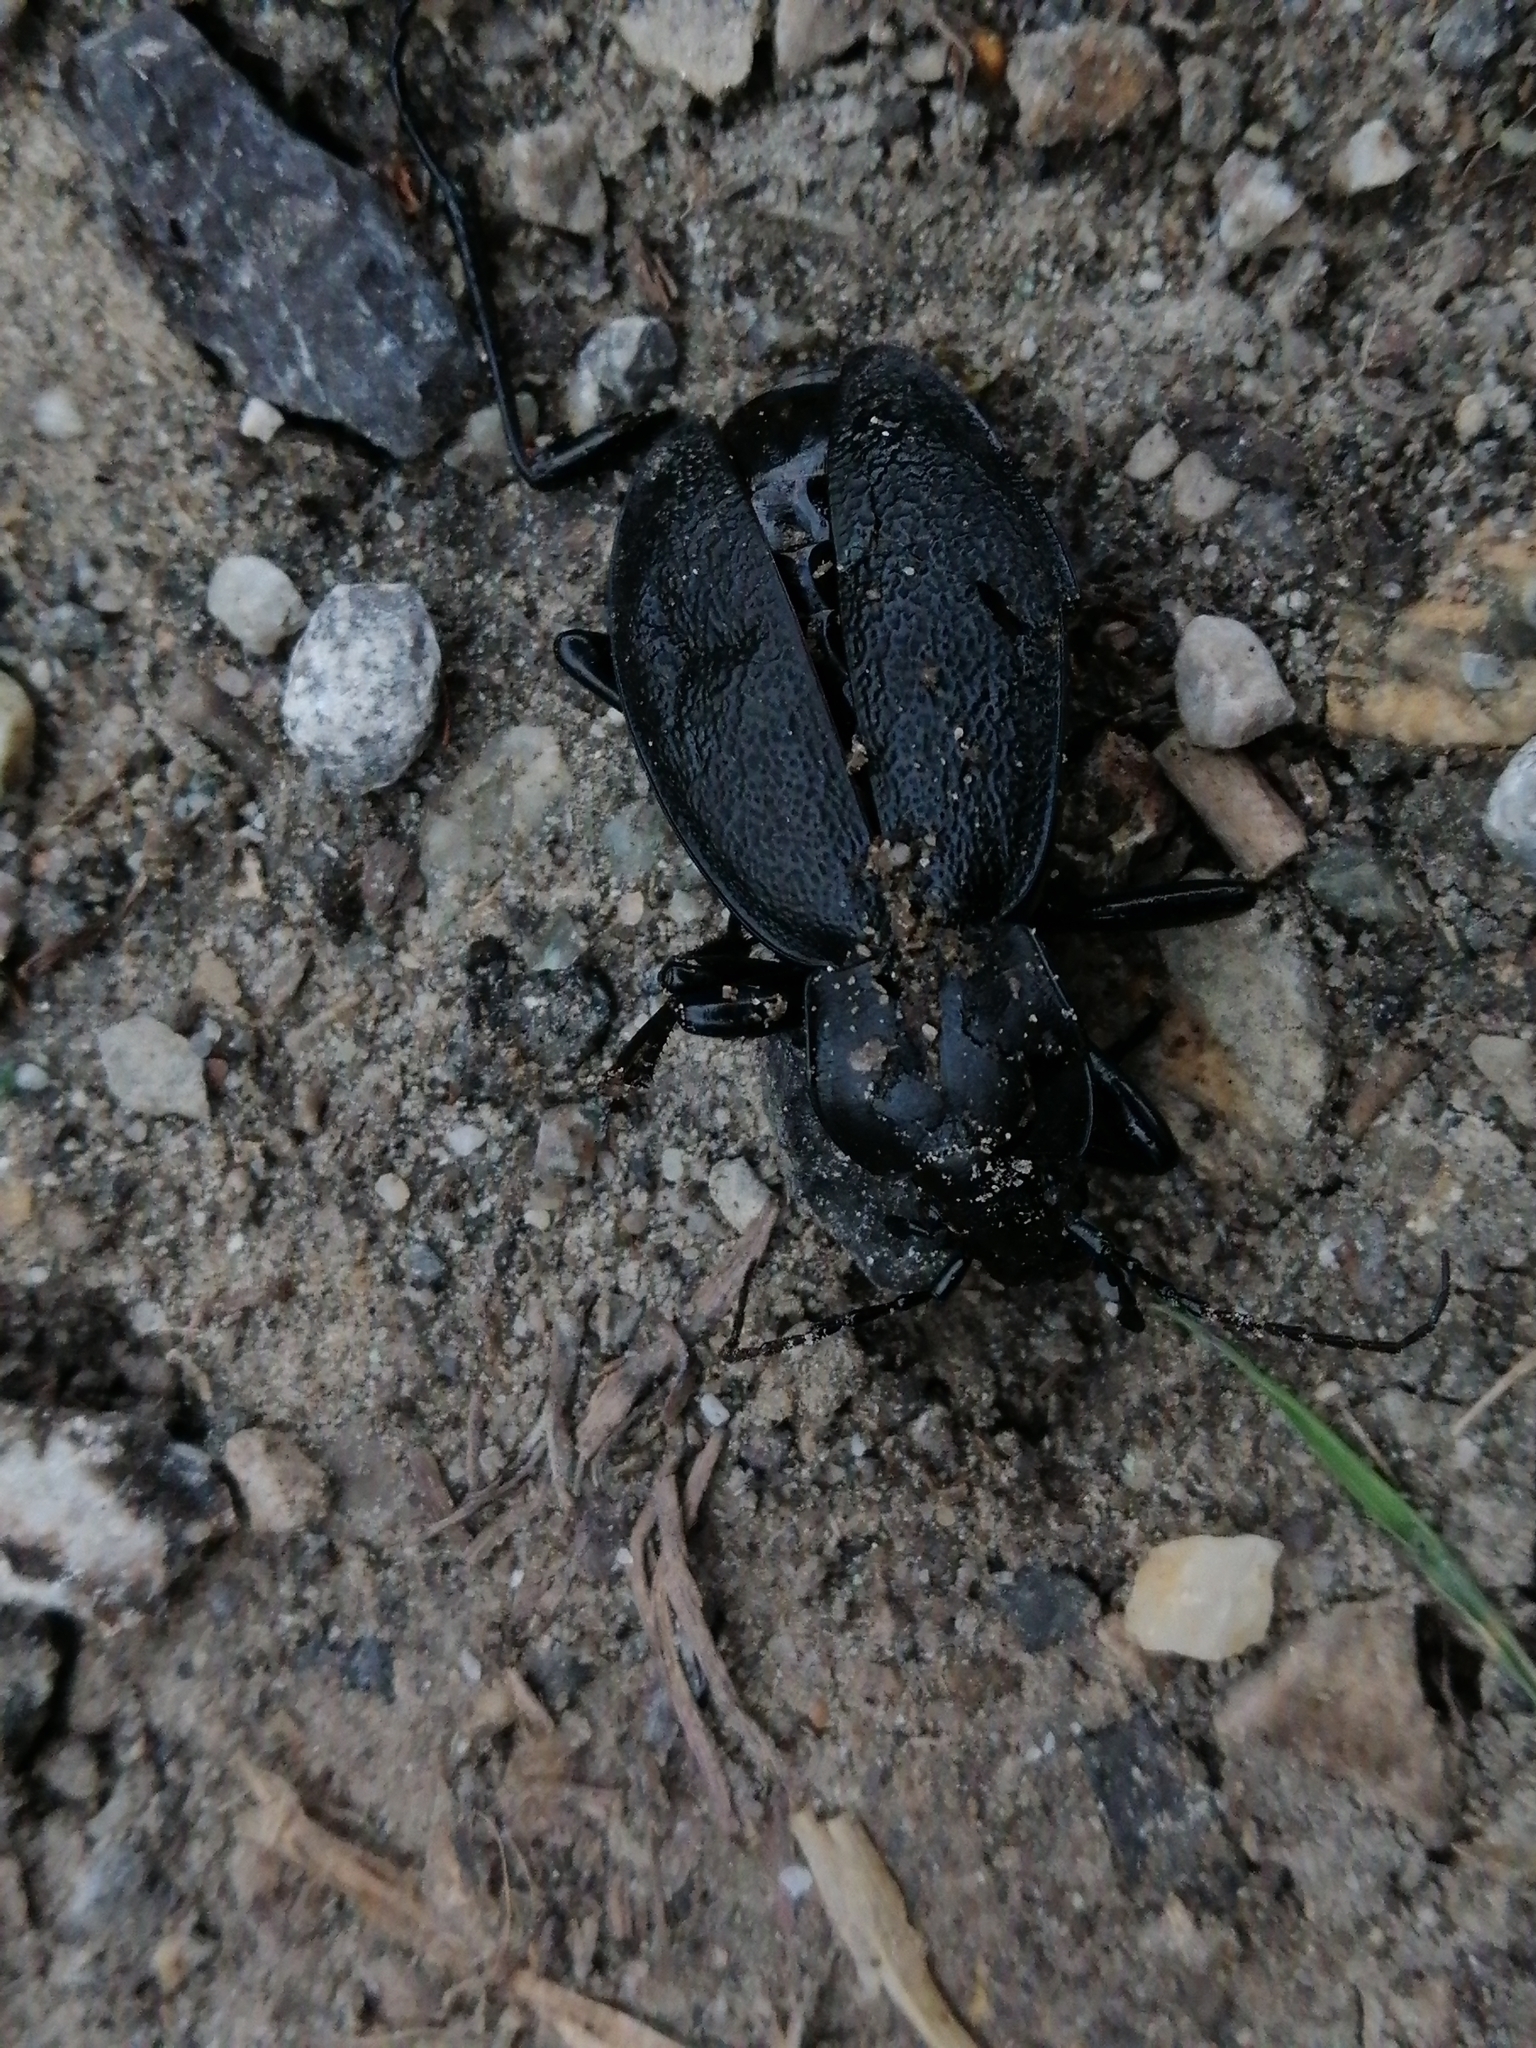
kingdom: Animalia
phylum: Arthropoda
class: Insecta
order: Coleoptera
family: Carabidae
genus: Carabus
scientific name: Carabus coriaceus
